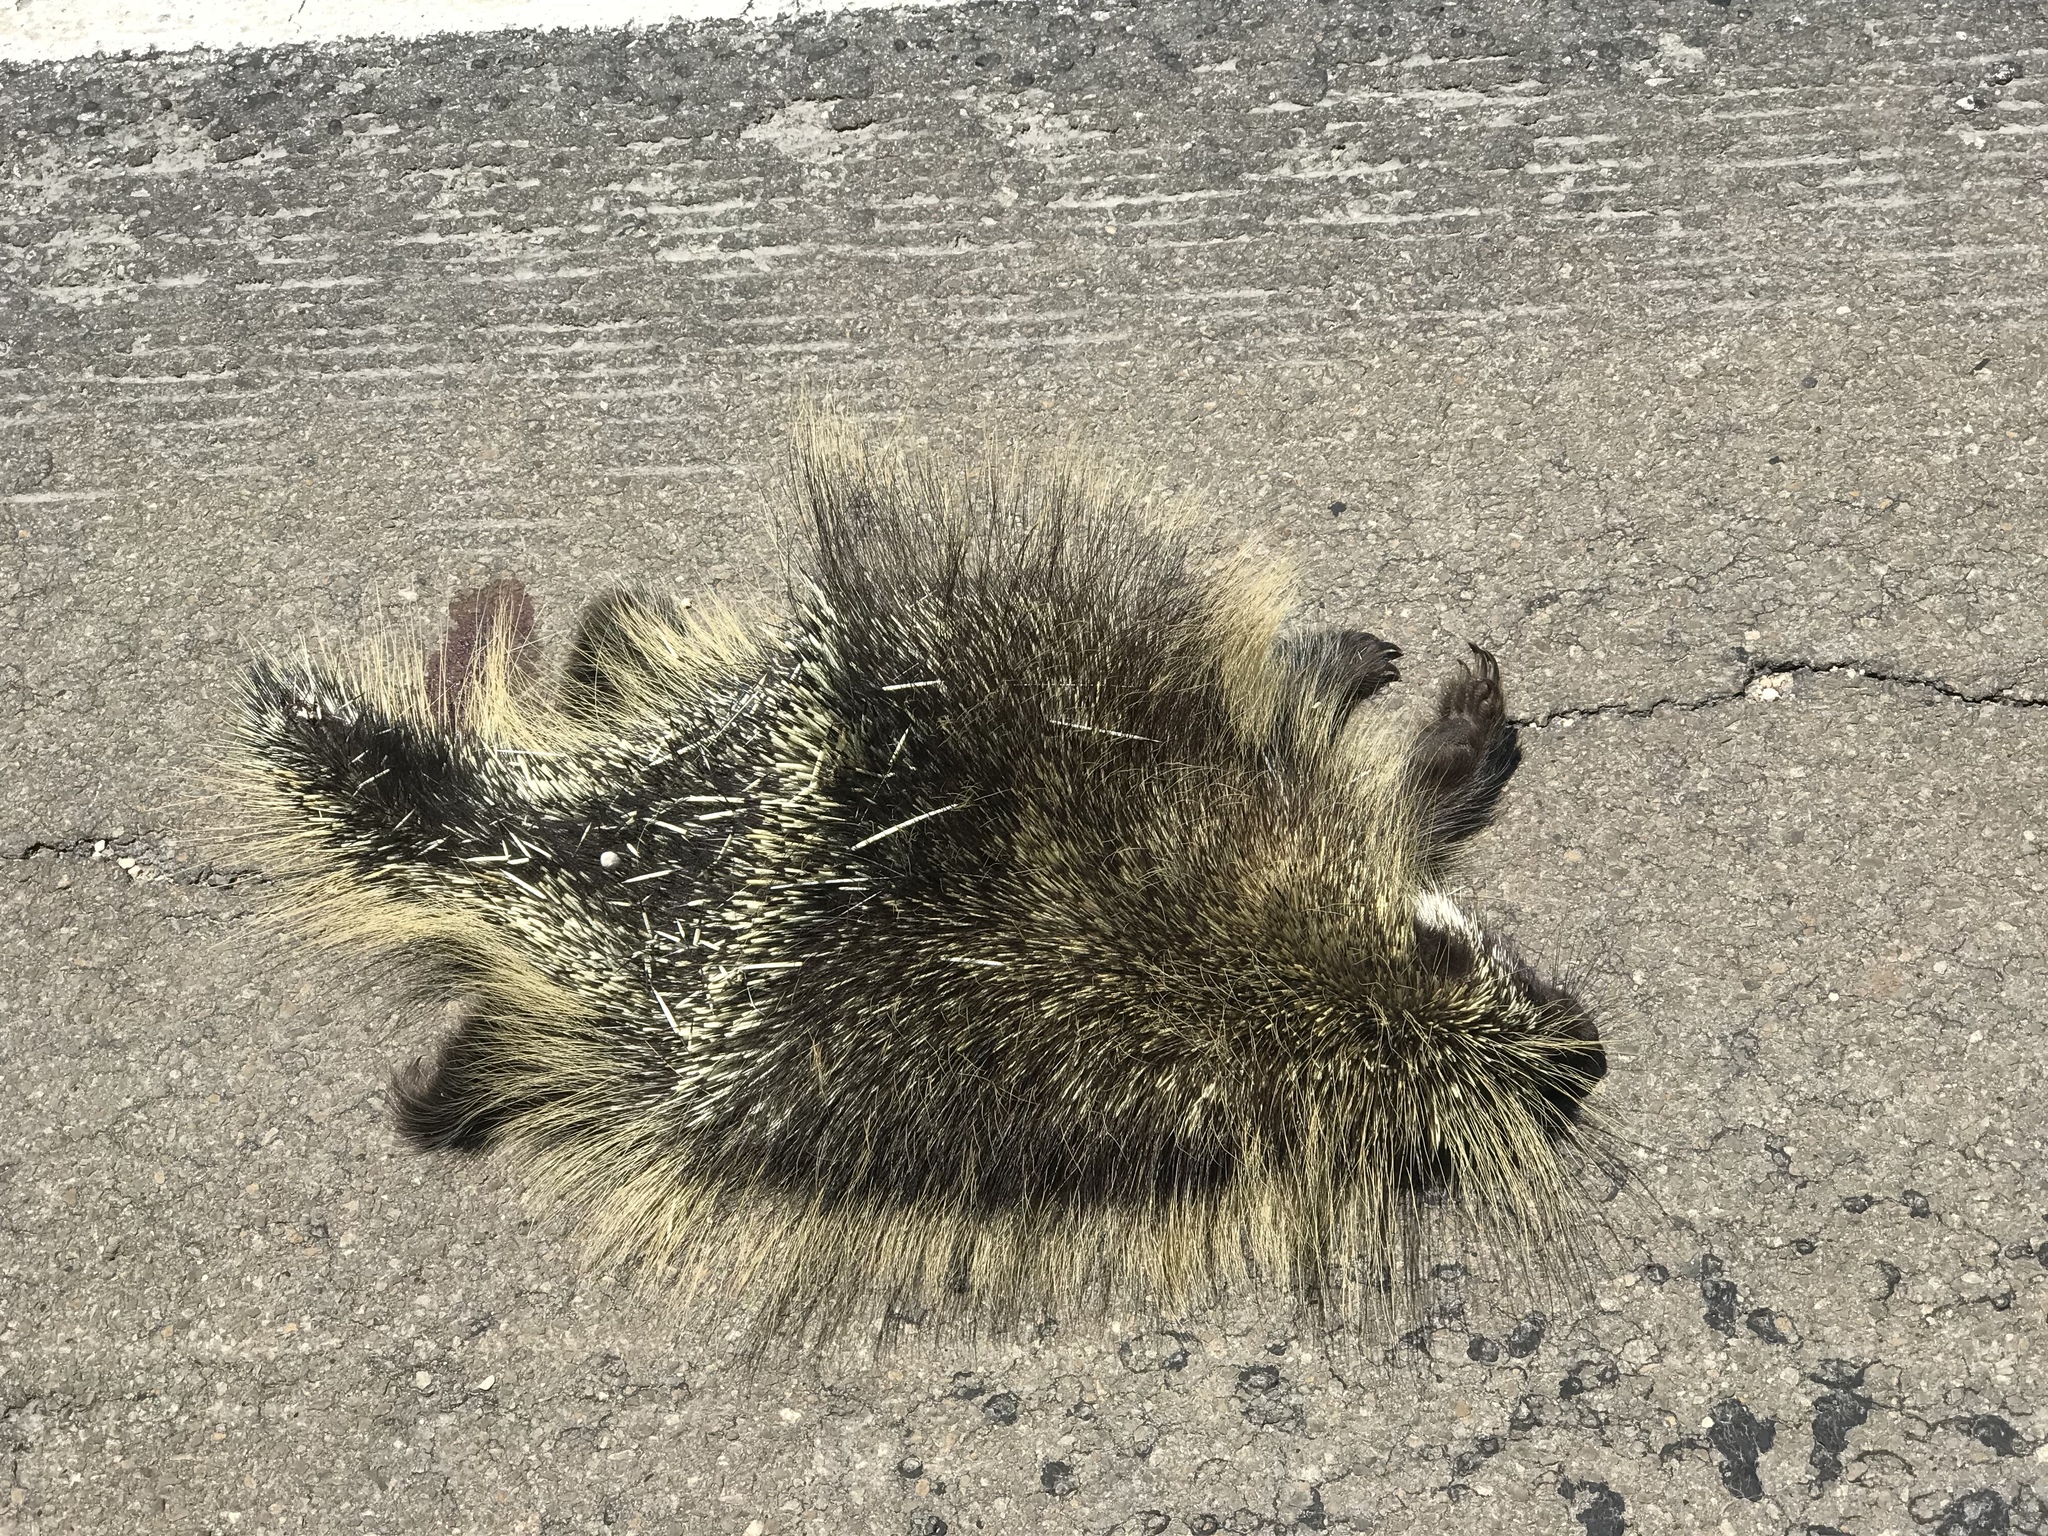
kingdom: Animalia
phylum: Chordata
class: Mammalia
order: Rodentia
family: Erethizontidae
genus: Erethizon
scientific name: Erethizon dorsatus
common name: North american porcupine
